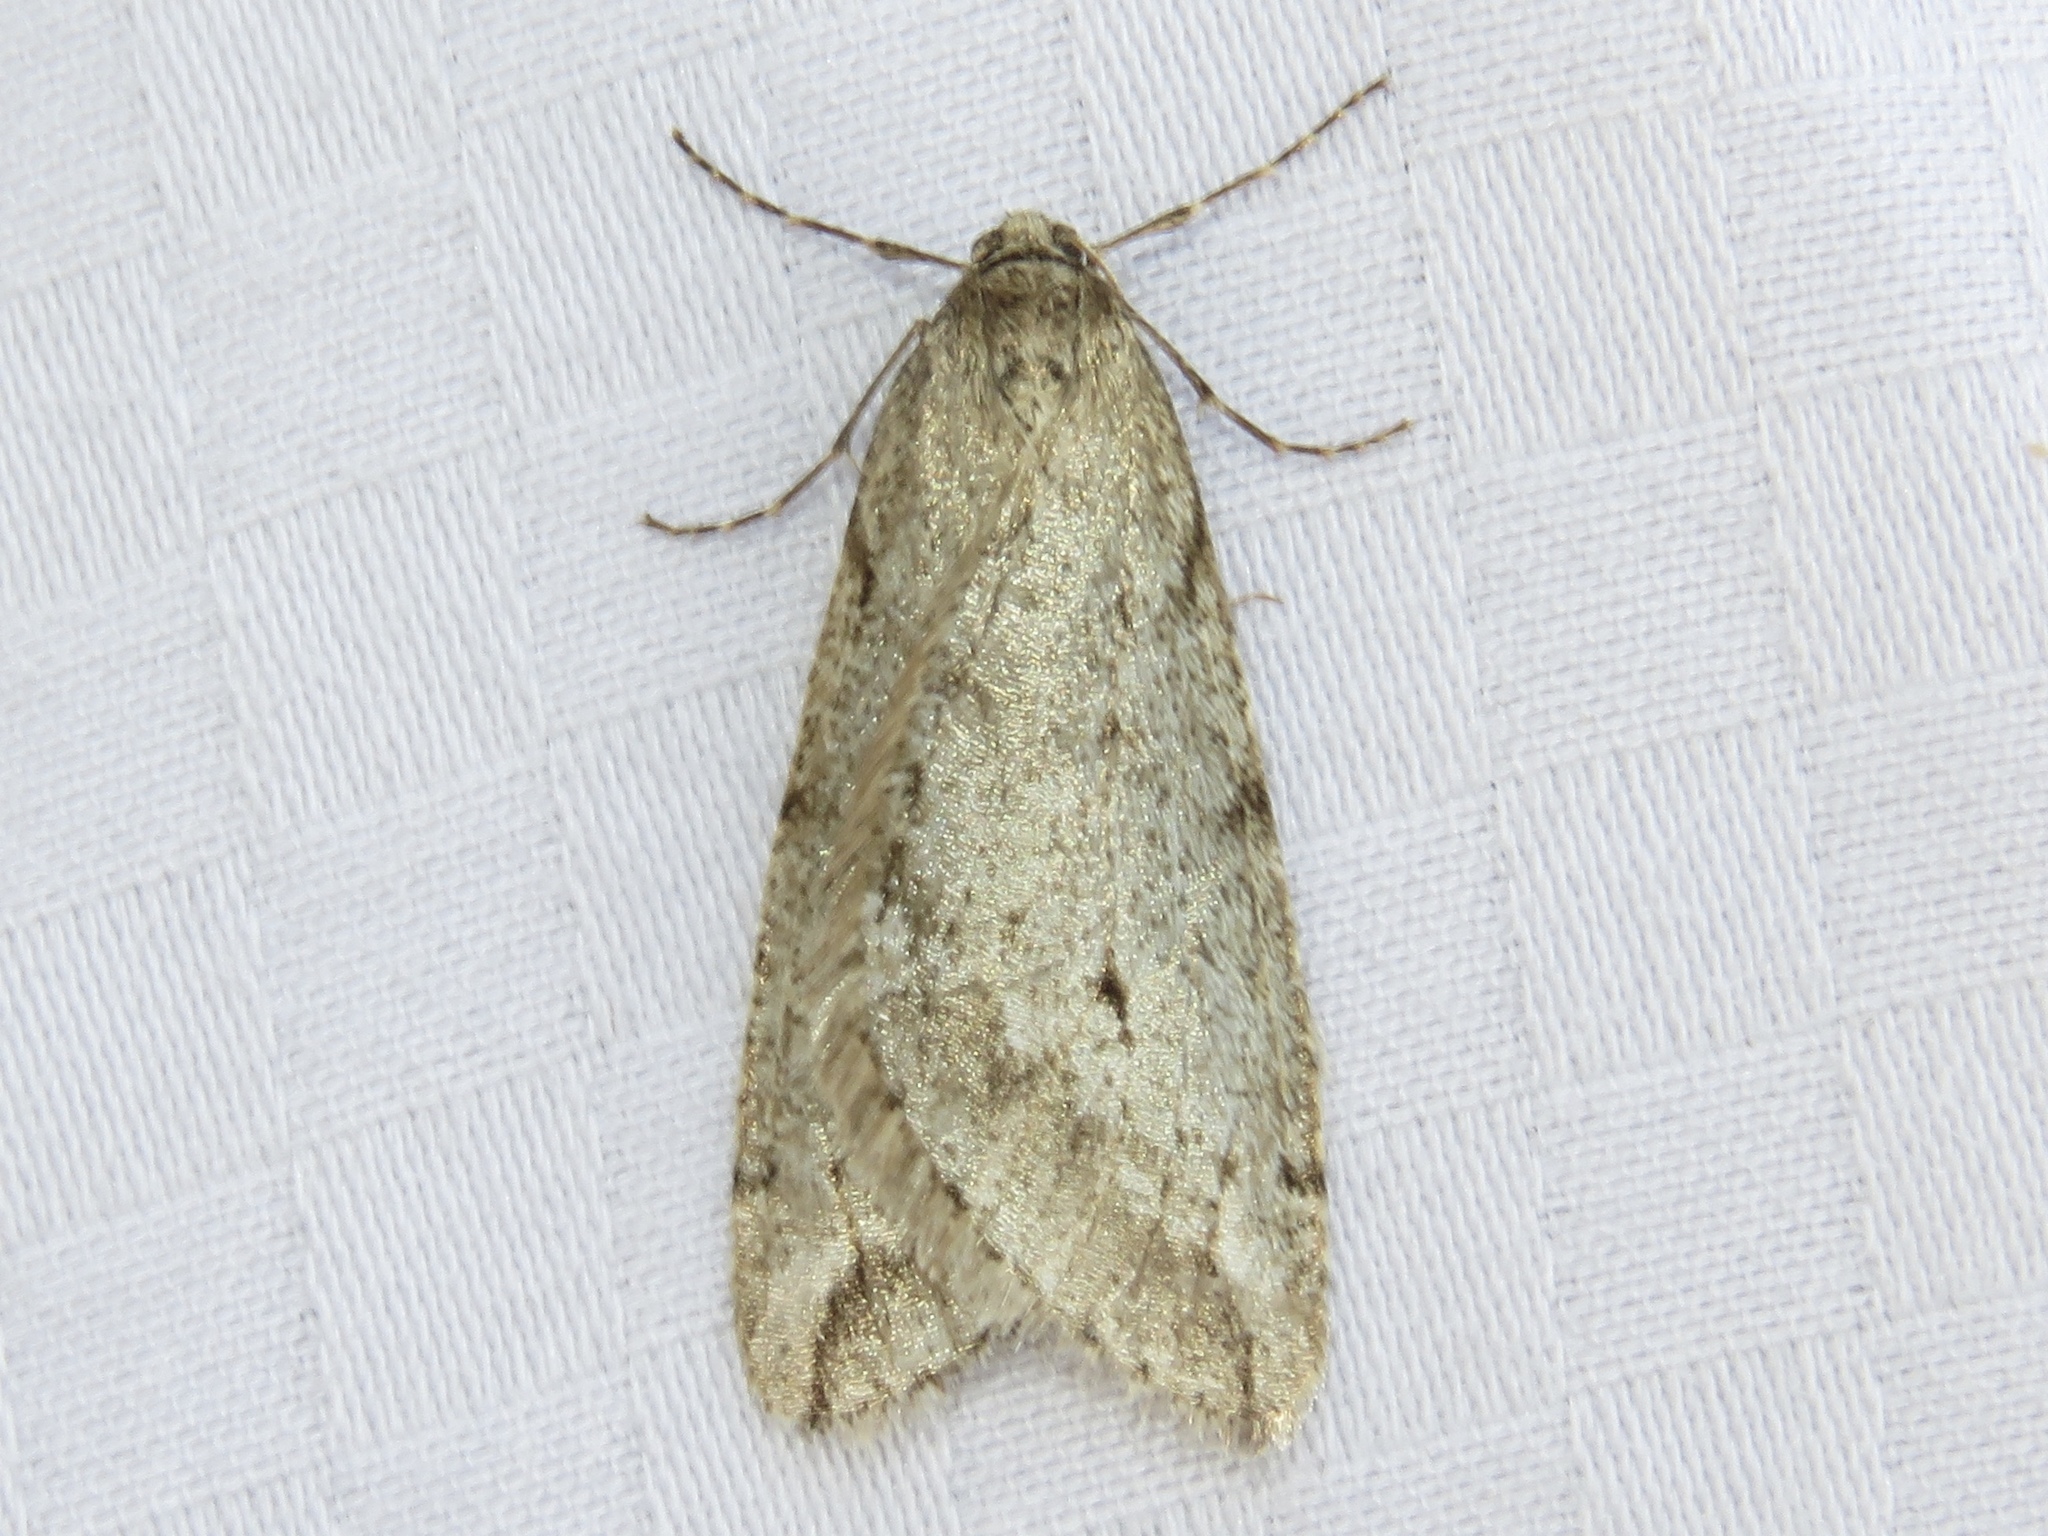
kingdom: Animalia
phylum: Arthropoda
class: Insecta
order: Lepidoptera
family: Geometridae
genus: Paleacrita
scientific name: Paleacrita vernata
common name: Spring cankerworm
